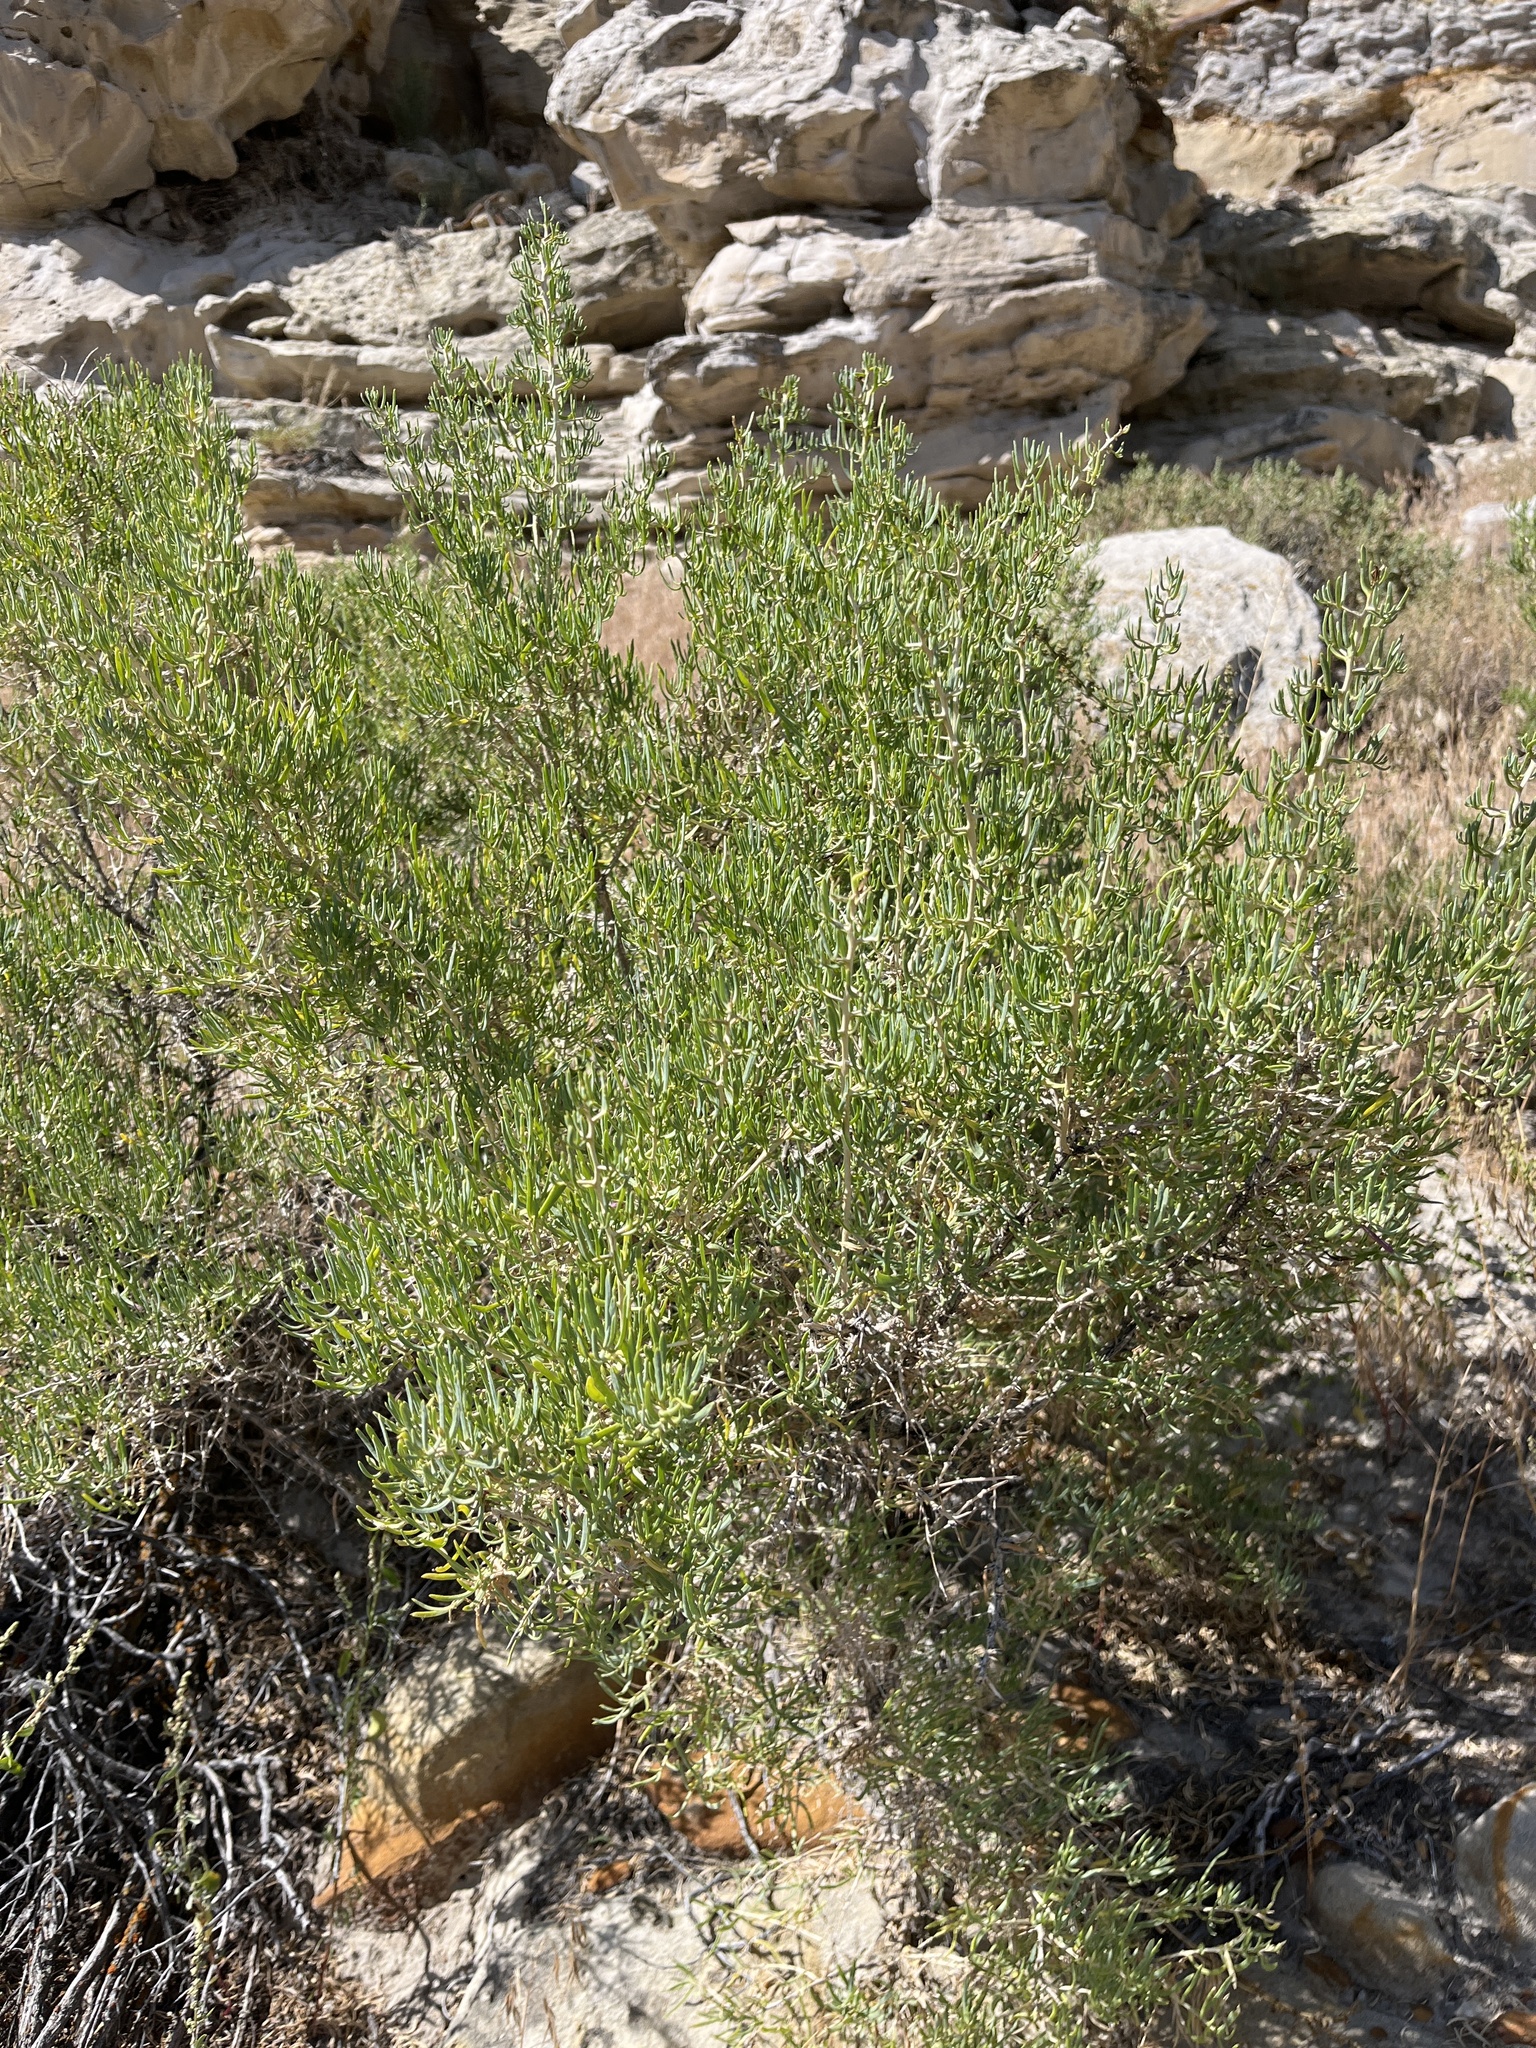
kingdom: Plantae
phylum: Tracheophyta
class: Magnoliopsida
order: Caryophyllales
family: Sarcobataceae
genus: Sarcobatus
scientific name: Sarcobatus vermiculatus
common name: Greasewood
